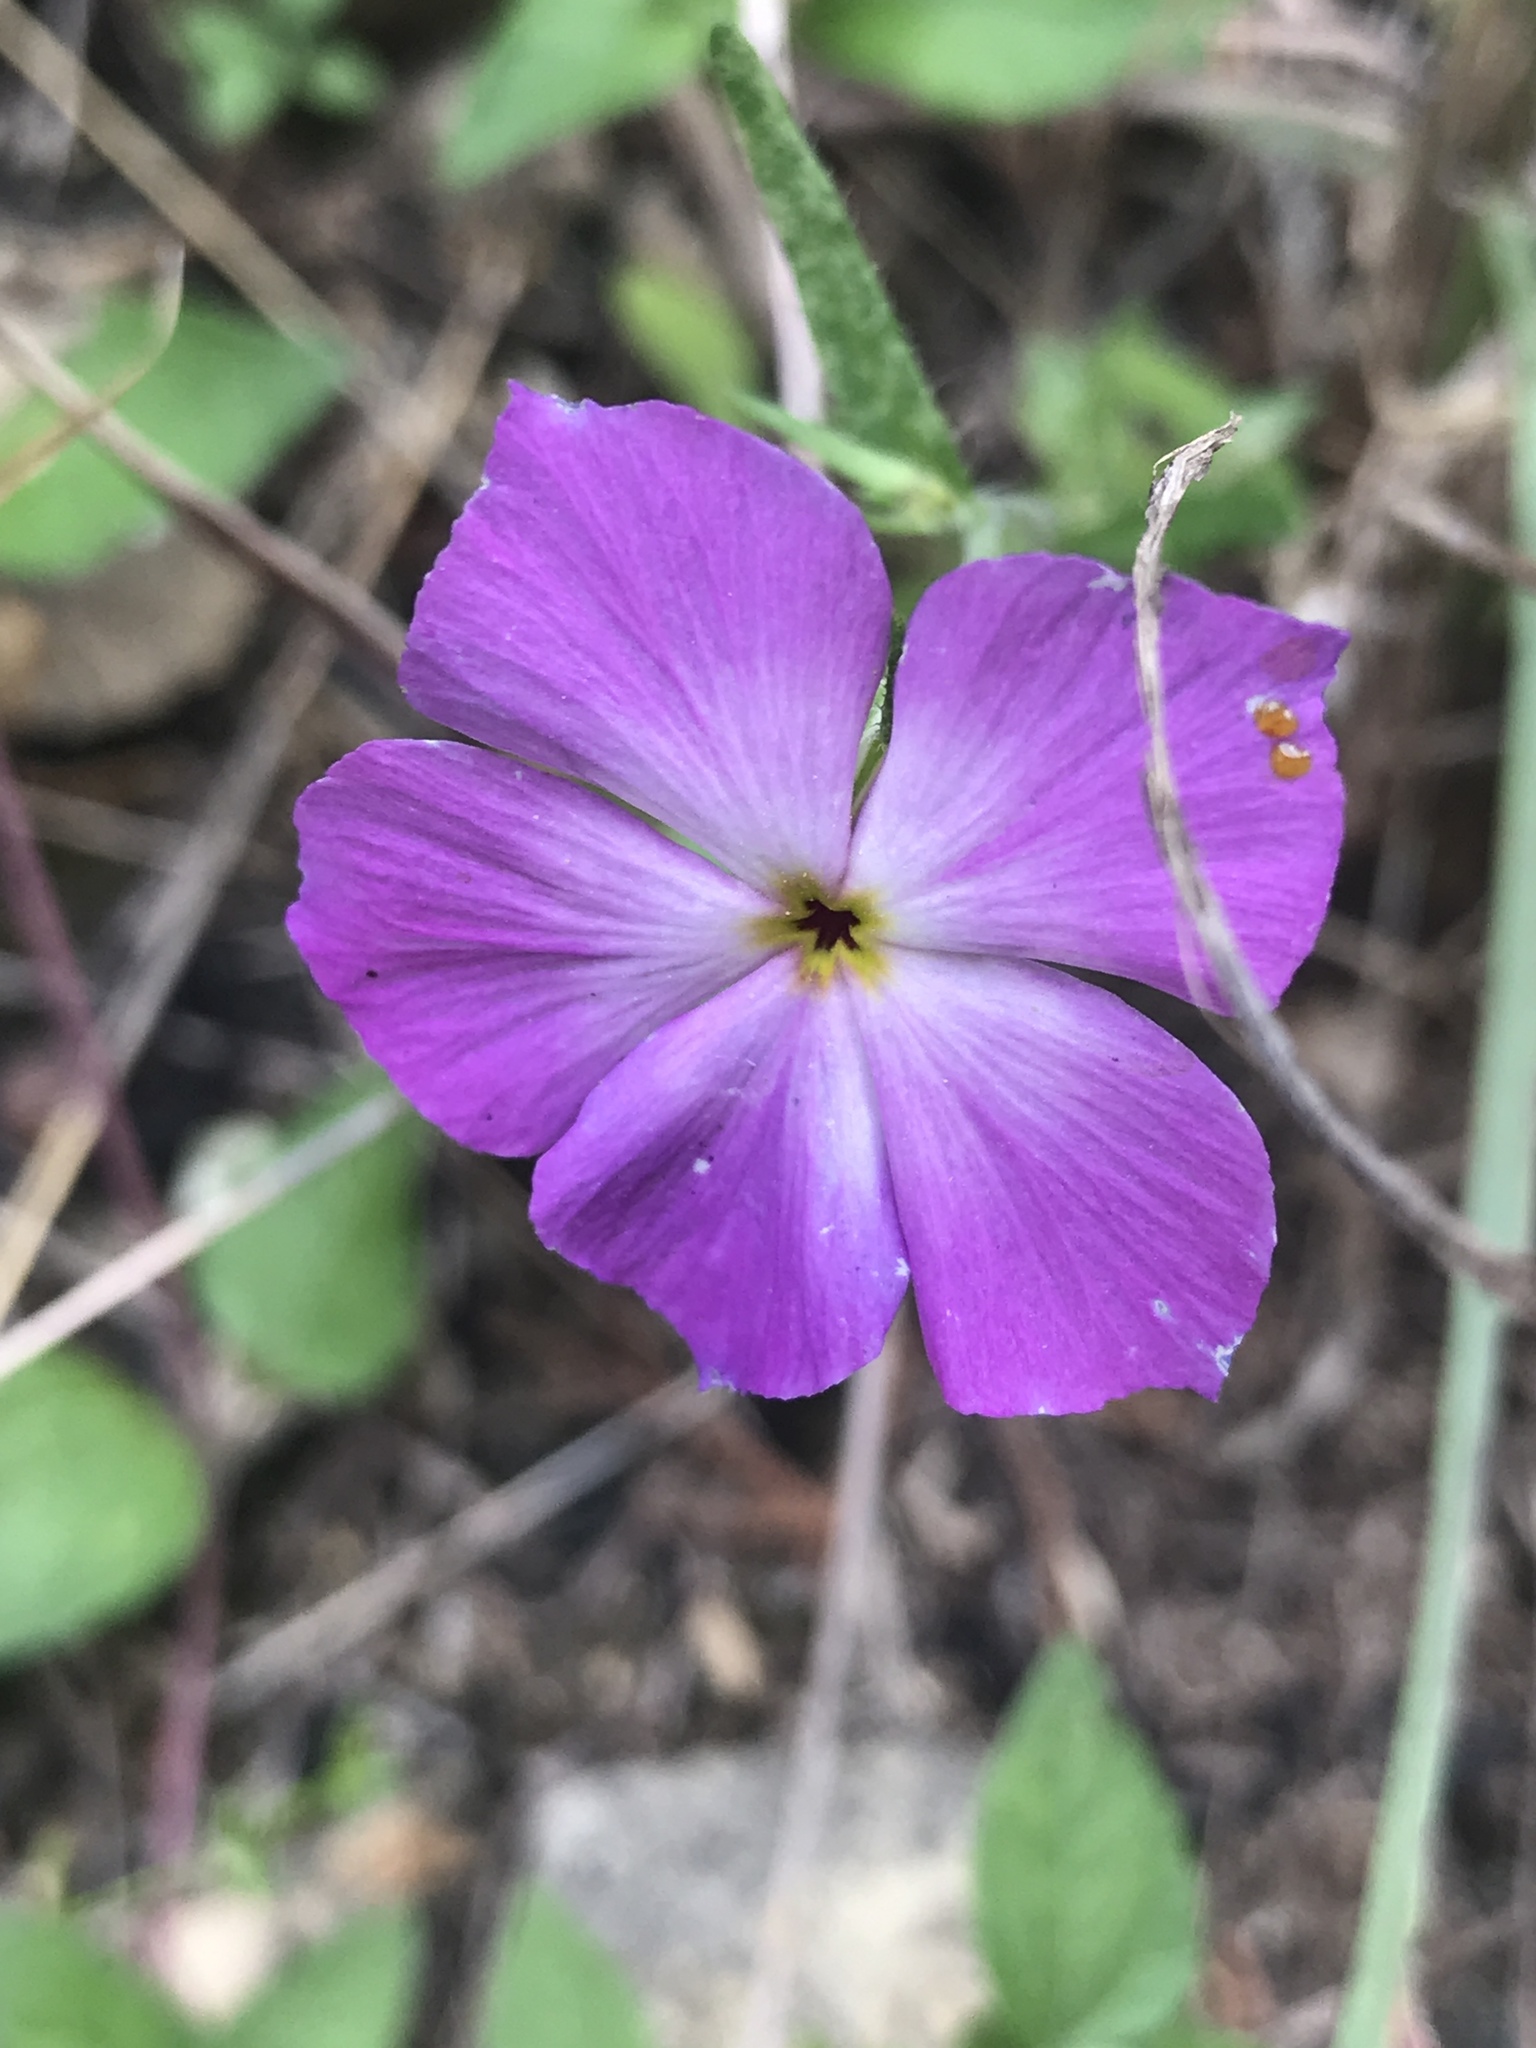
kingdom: Plantae
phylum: Tracheophyta
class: Magnoliopsida
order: Ericales
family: Polemoniaceae
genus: Phlox
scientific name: Phlox roemeriana
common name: Roemer's phlox
